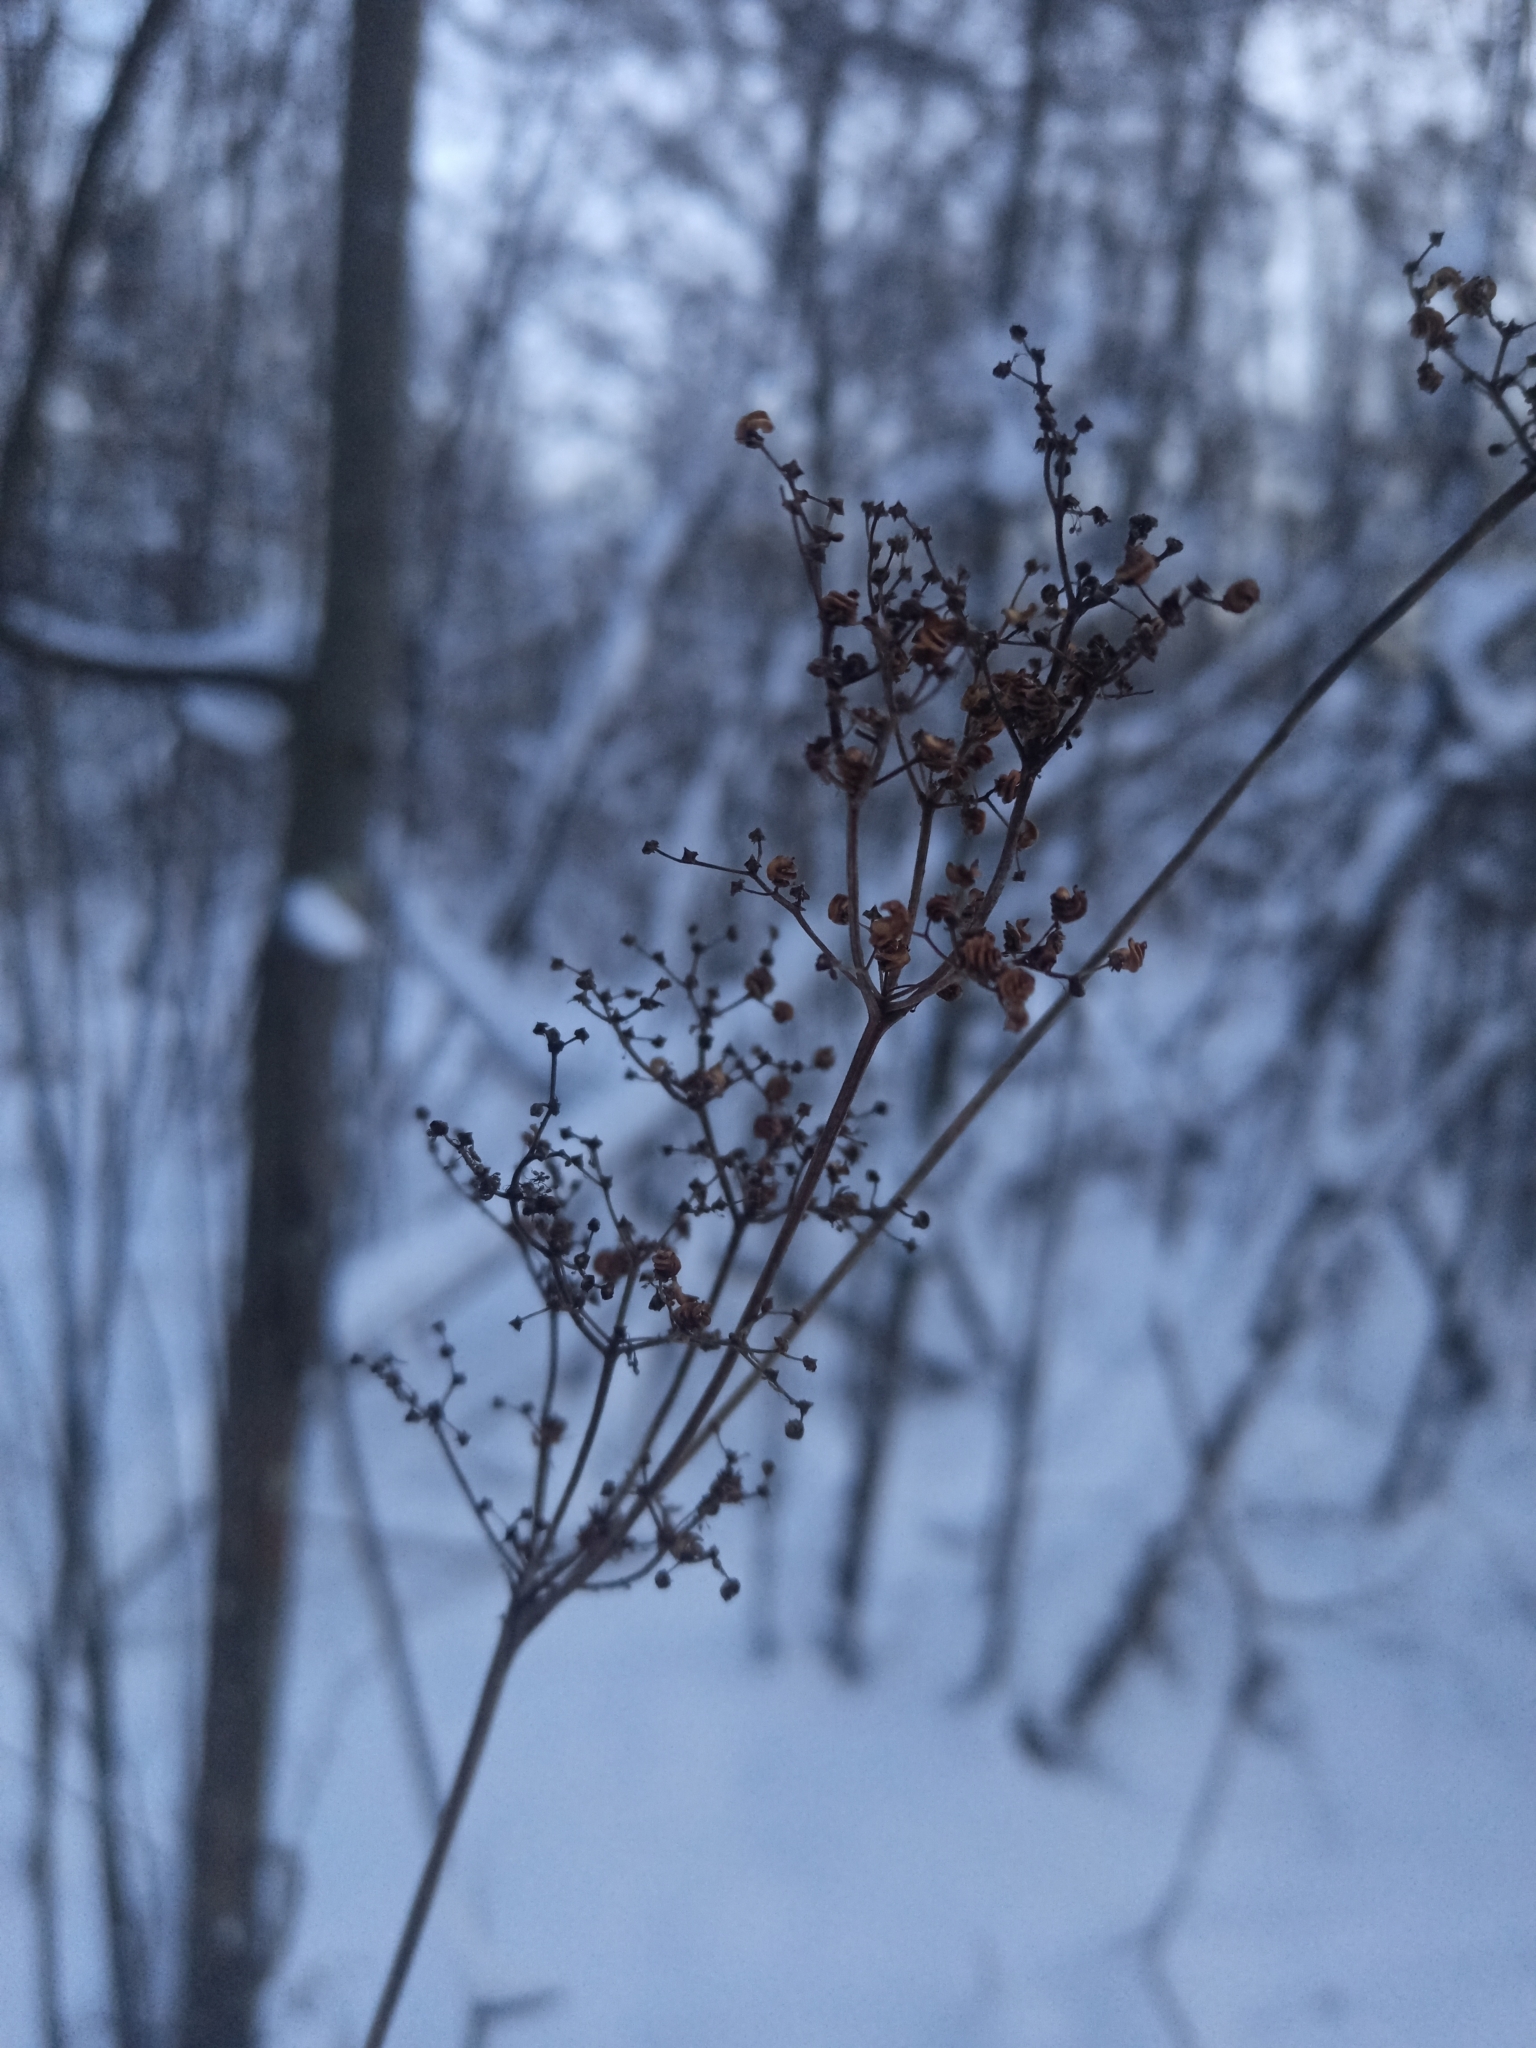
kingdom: Plantae
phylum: Tracheophyta
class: Magnoliopsida
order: Rosales
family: Rosaceae
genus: Filipendula
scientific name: Filipendula ulmaria
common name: Meadowsweet
